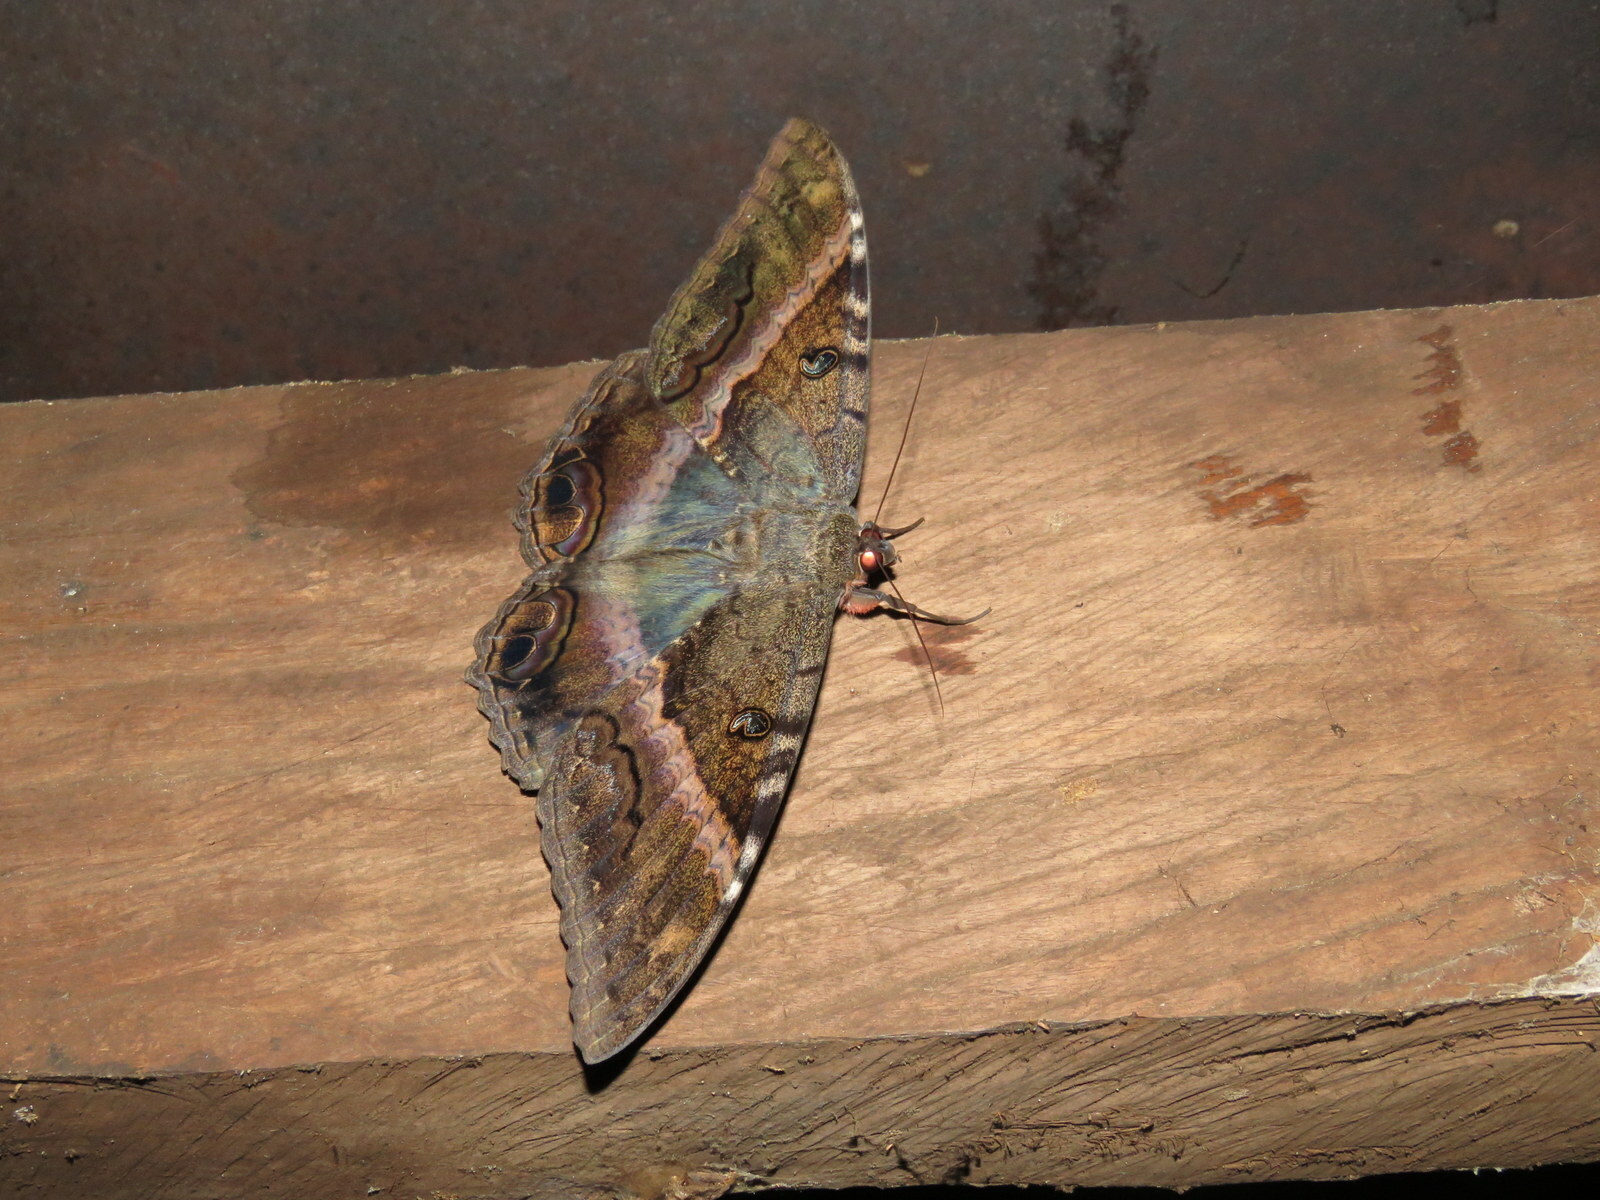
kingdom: Animalia
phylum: Arthropoda
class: Insecta
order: Lepidoptera
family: Erebidae
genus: Ascalapha
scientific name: Ascalapha odorata
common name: Black witch
